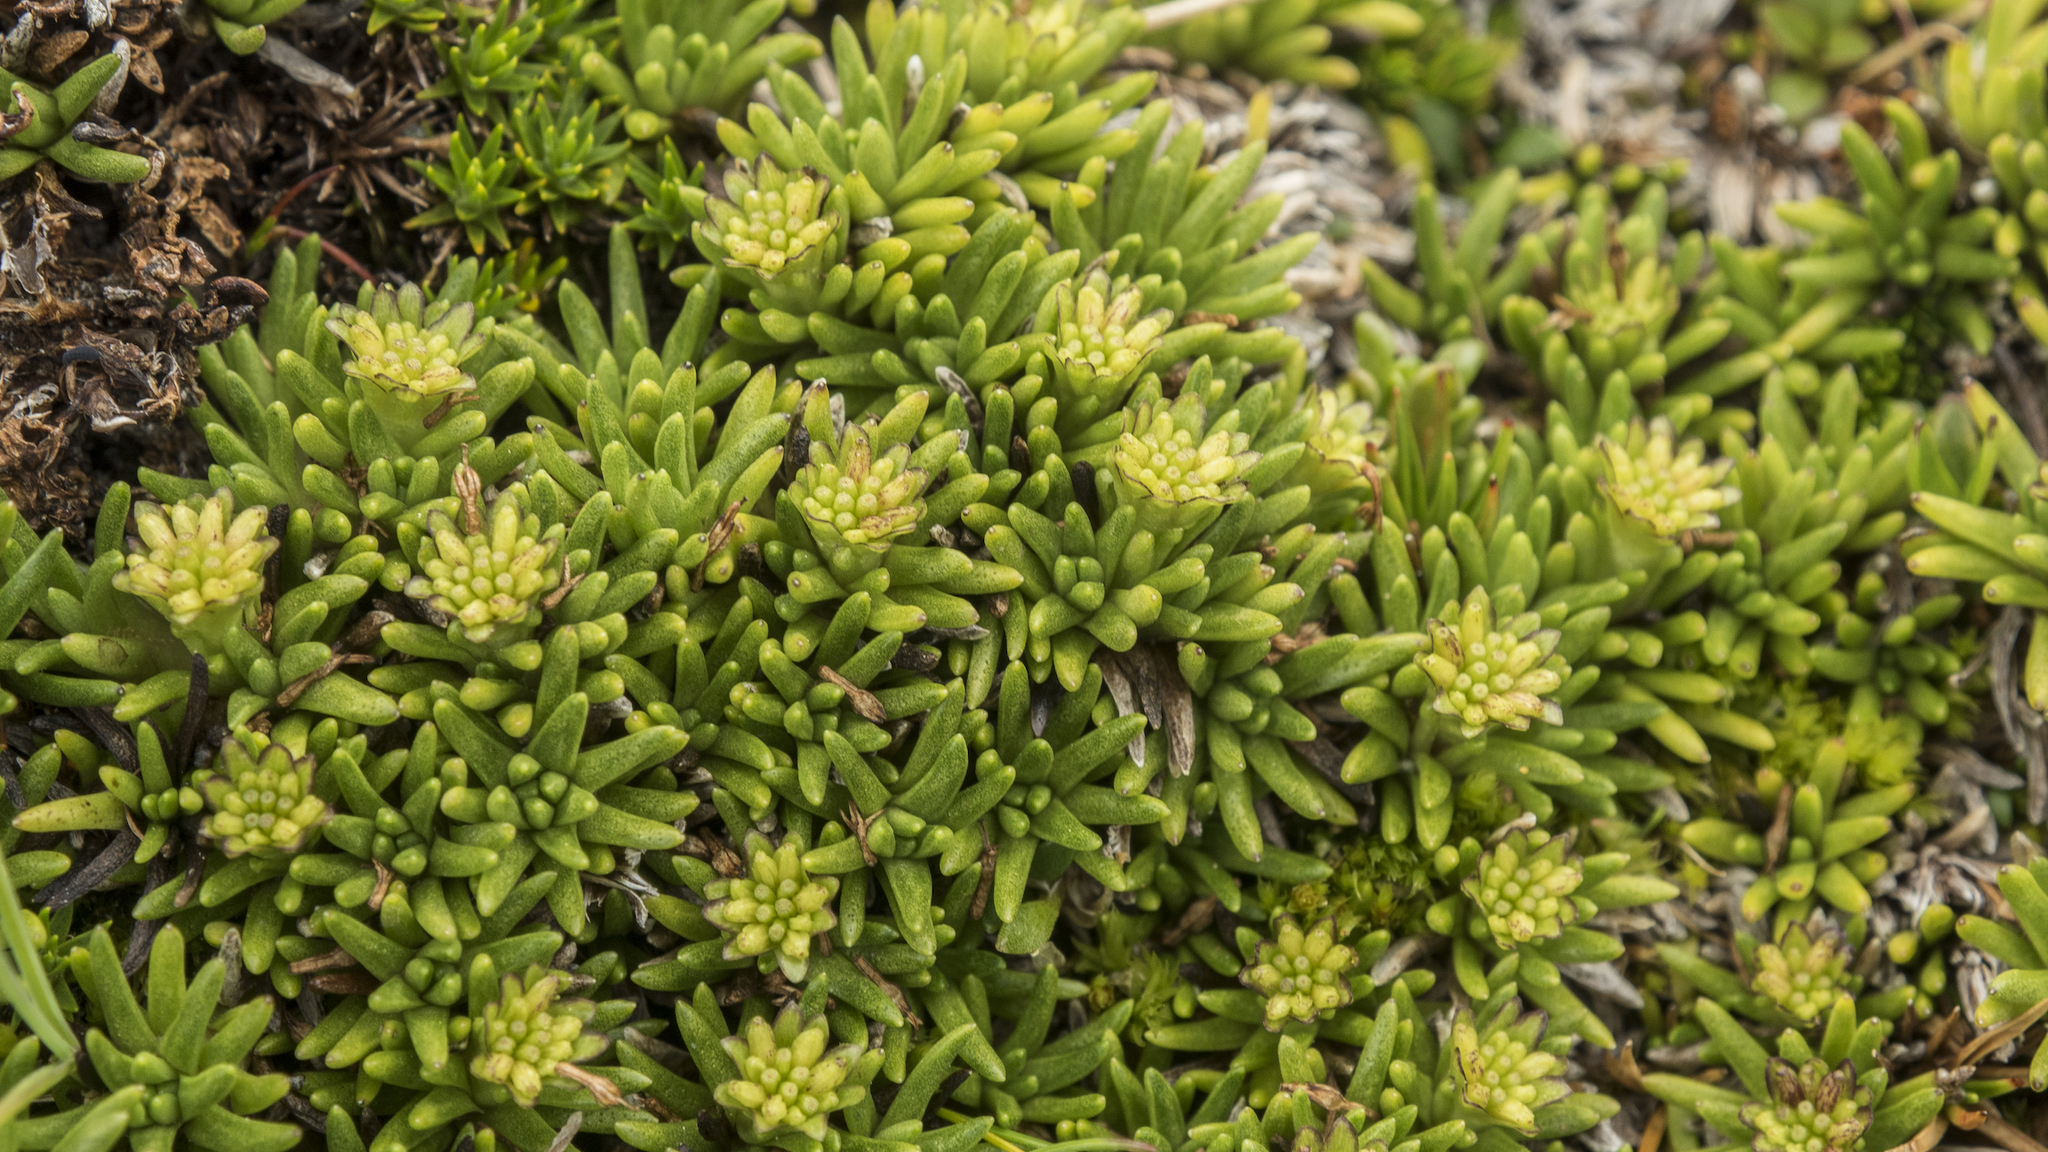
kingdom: Plantae
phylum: Tracheophyta
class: Magnoliopsida
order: Asterales
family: Asteraceae
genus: Abrotanella
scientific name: Abrotanella inconspicua
